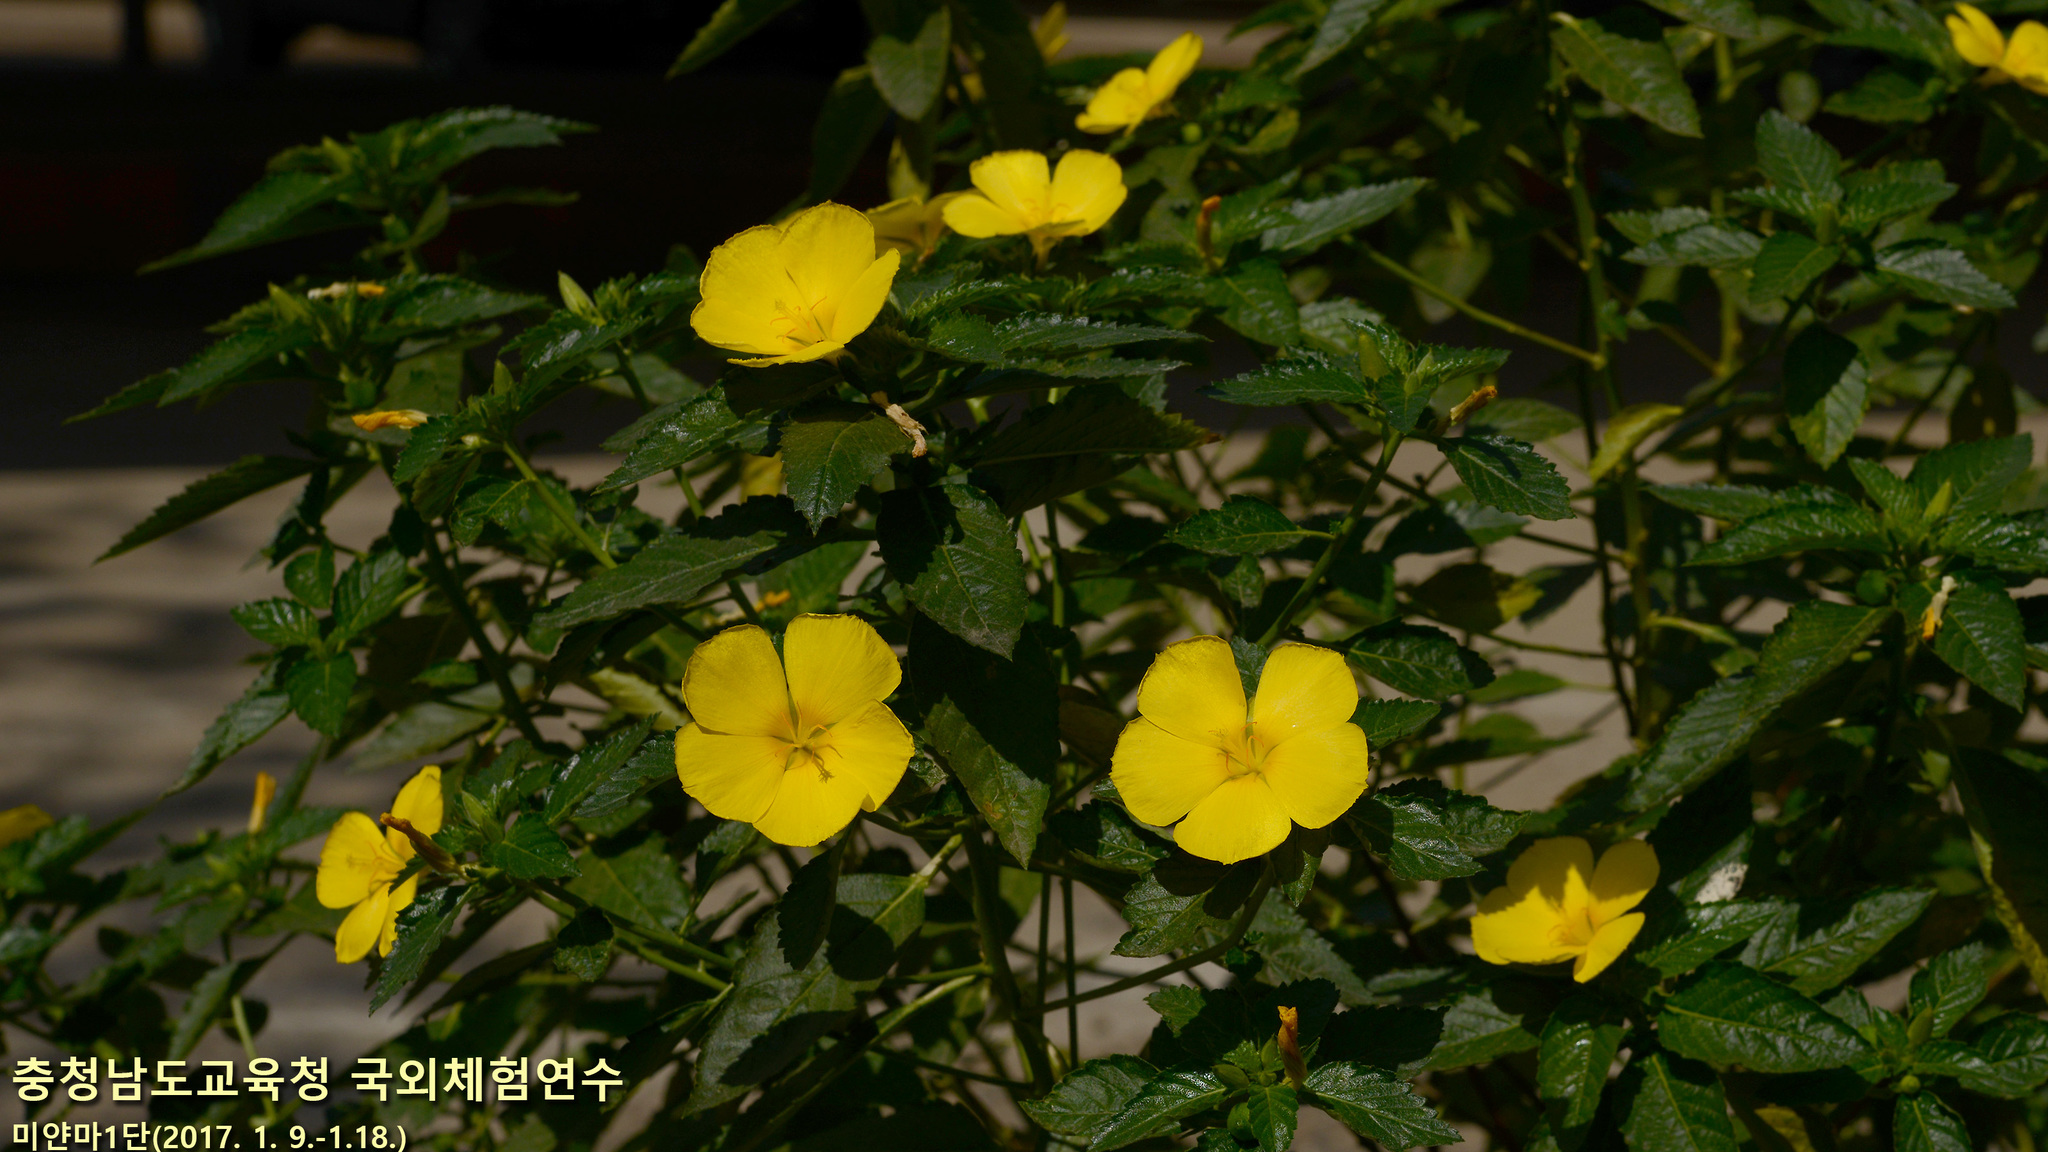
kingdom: Plantae
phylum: Tracheophyta
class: Magnoliopsida
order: Malpighiales
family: Turneraceae
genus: Turnera
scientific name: Turnera ulmifolia
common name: Ramgoat dashalong
